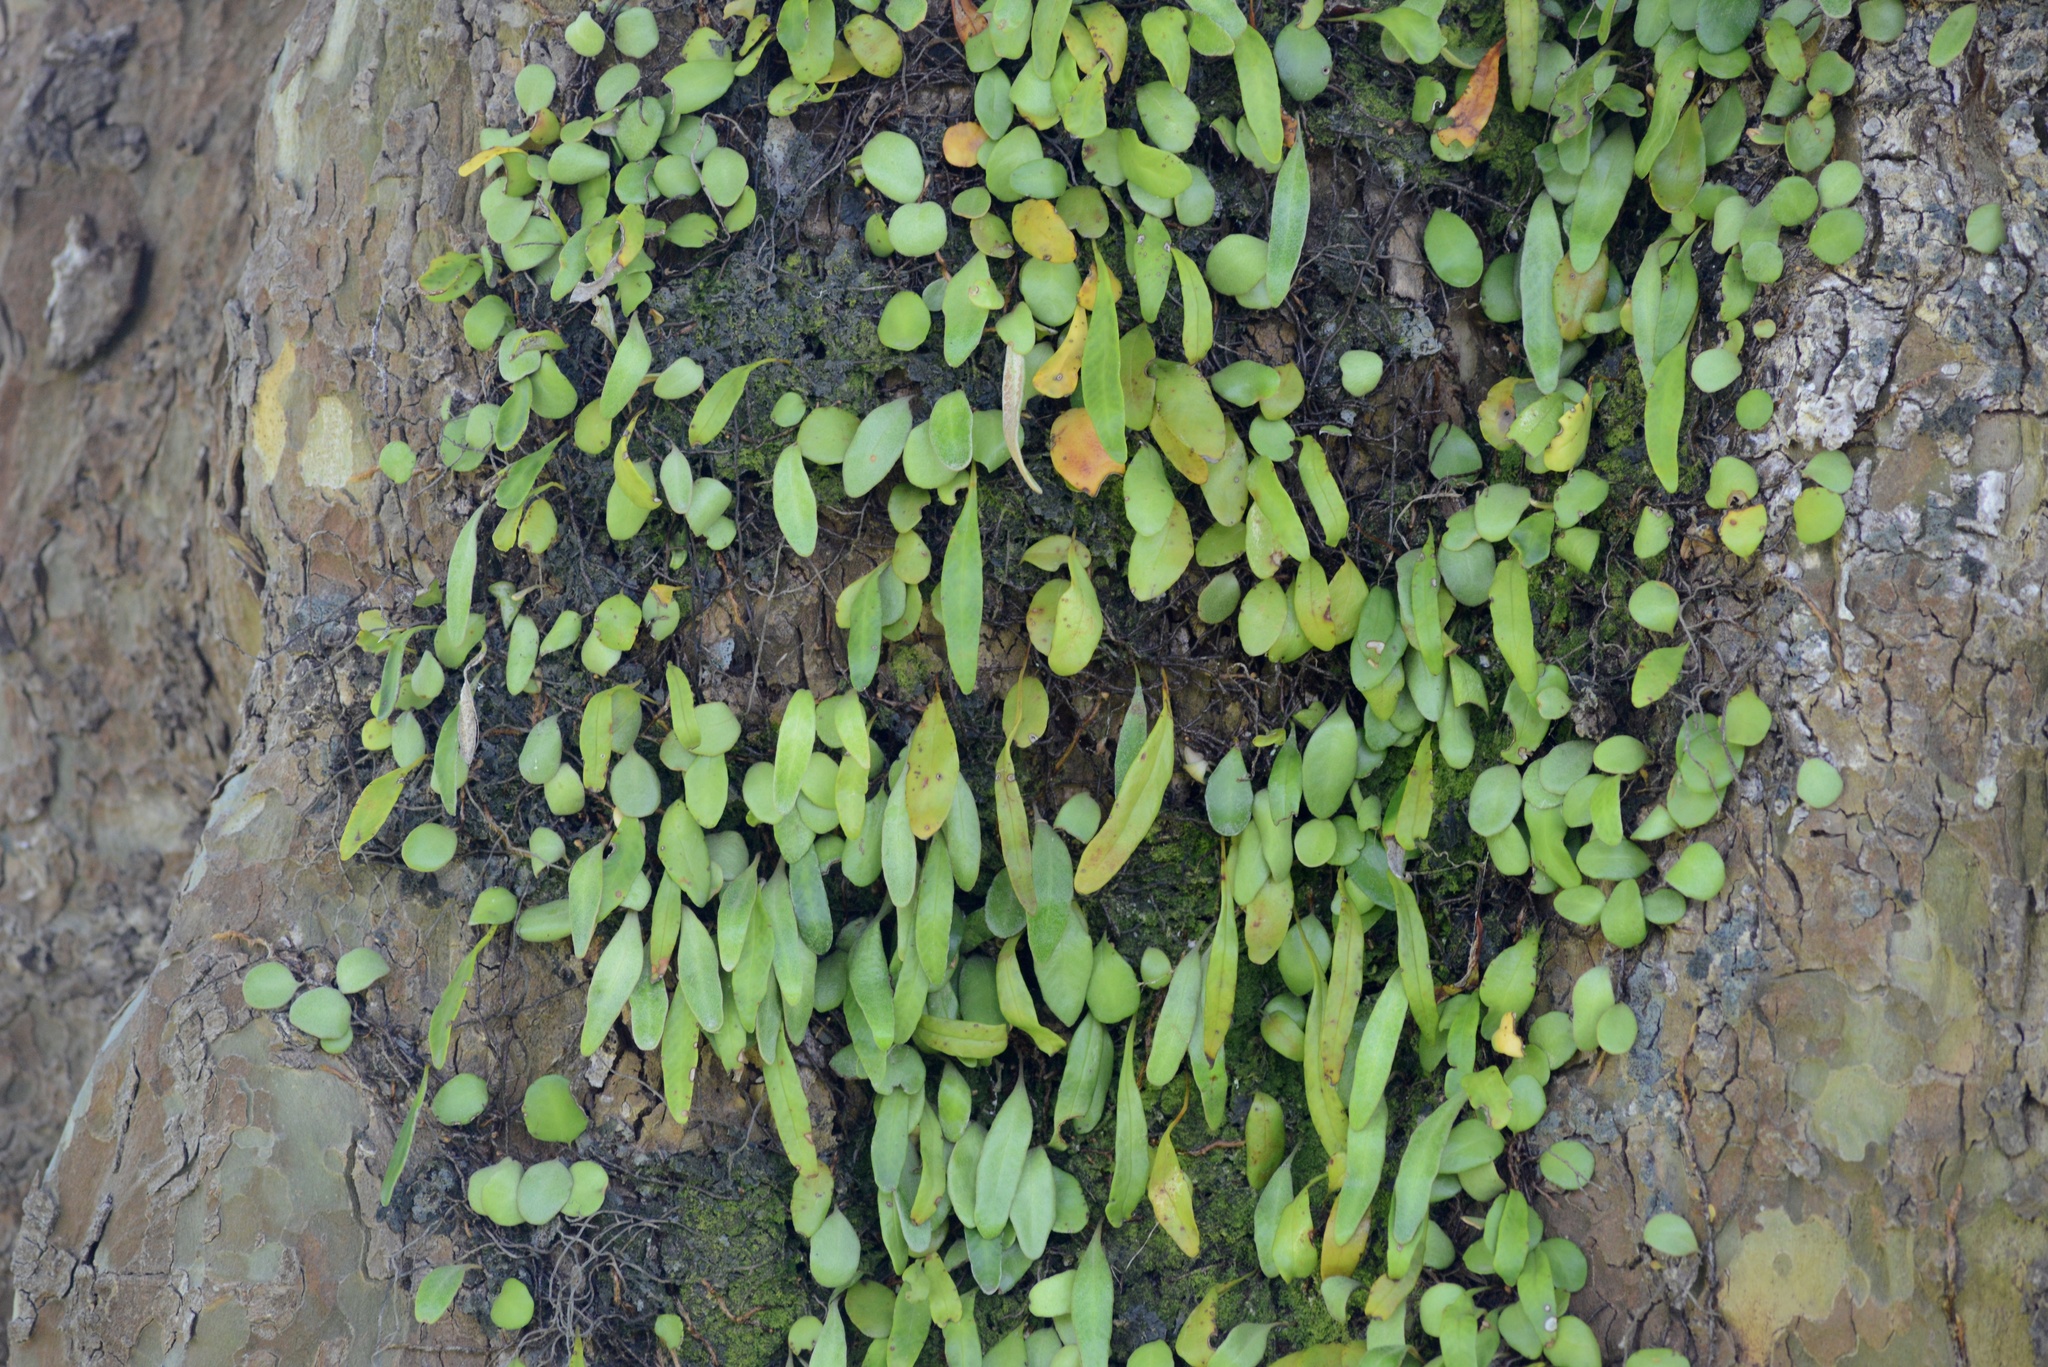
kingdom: Plantae
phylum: Tracheophyta
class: Polypodiopsida
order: Polypodiales
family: Polypodiaceae
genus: Pyrrosia
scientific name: Pyrrosia eleagnifolia
